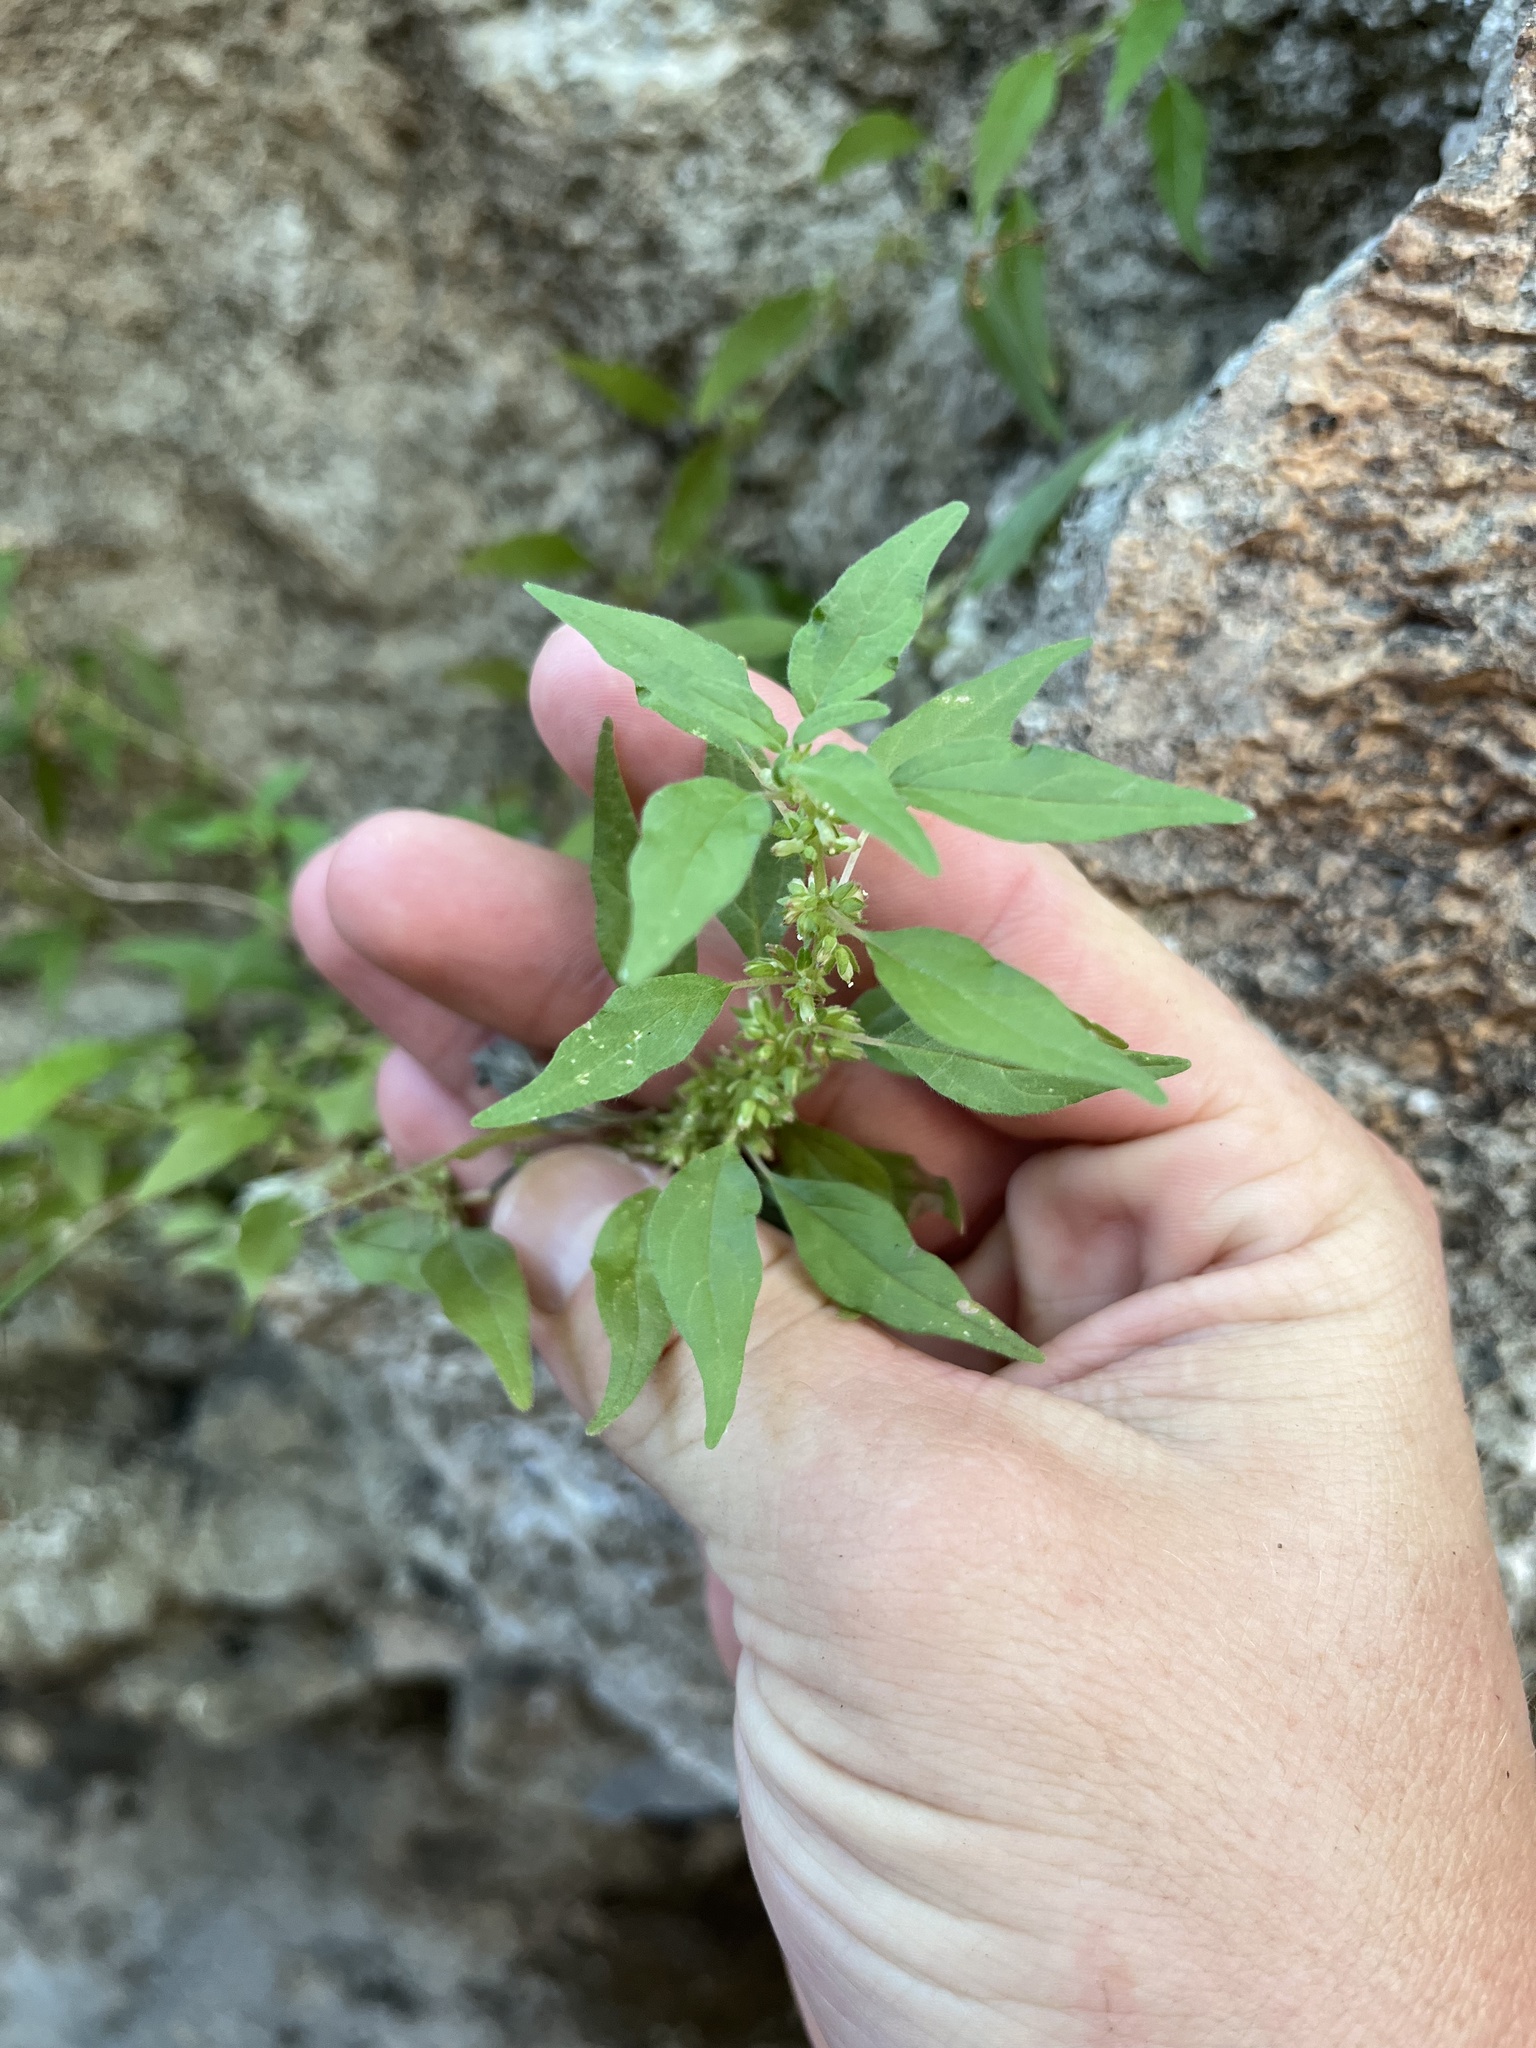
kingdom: Plantae
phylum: Tracheophyta
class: Magnoliopsida
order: Rosales
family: Urticaceae
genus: Parietaria
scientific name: Parietaria pensylvanica
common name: Pennsylvania pellitory
